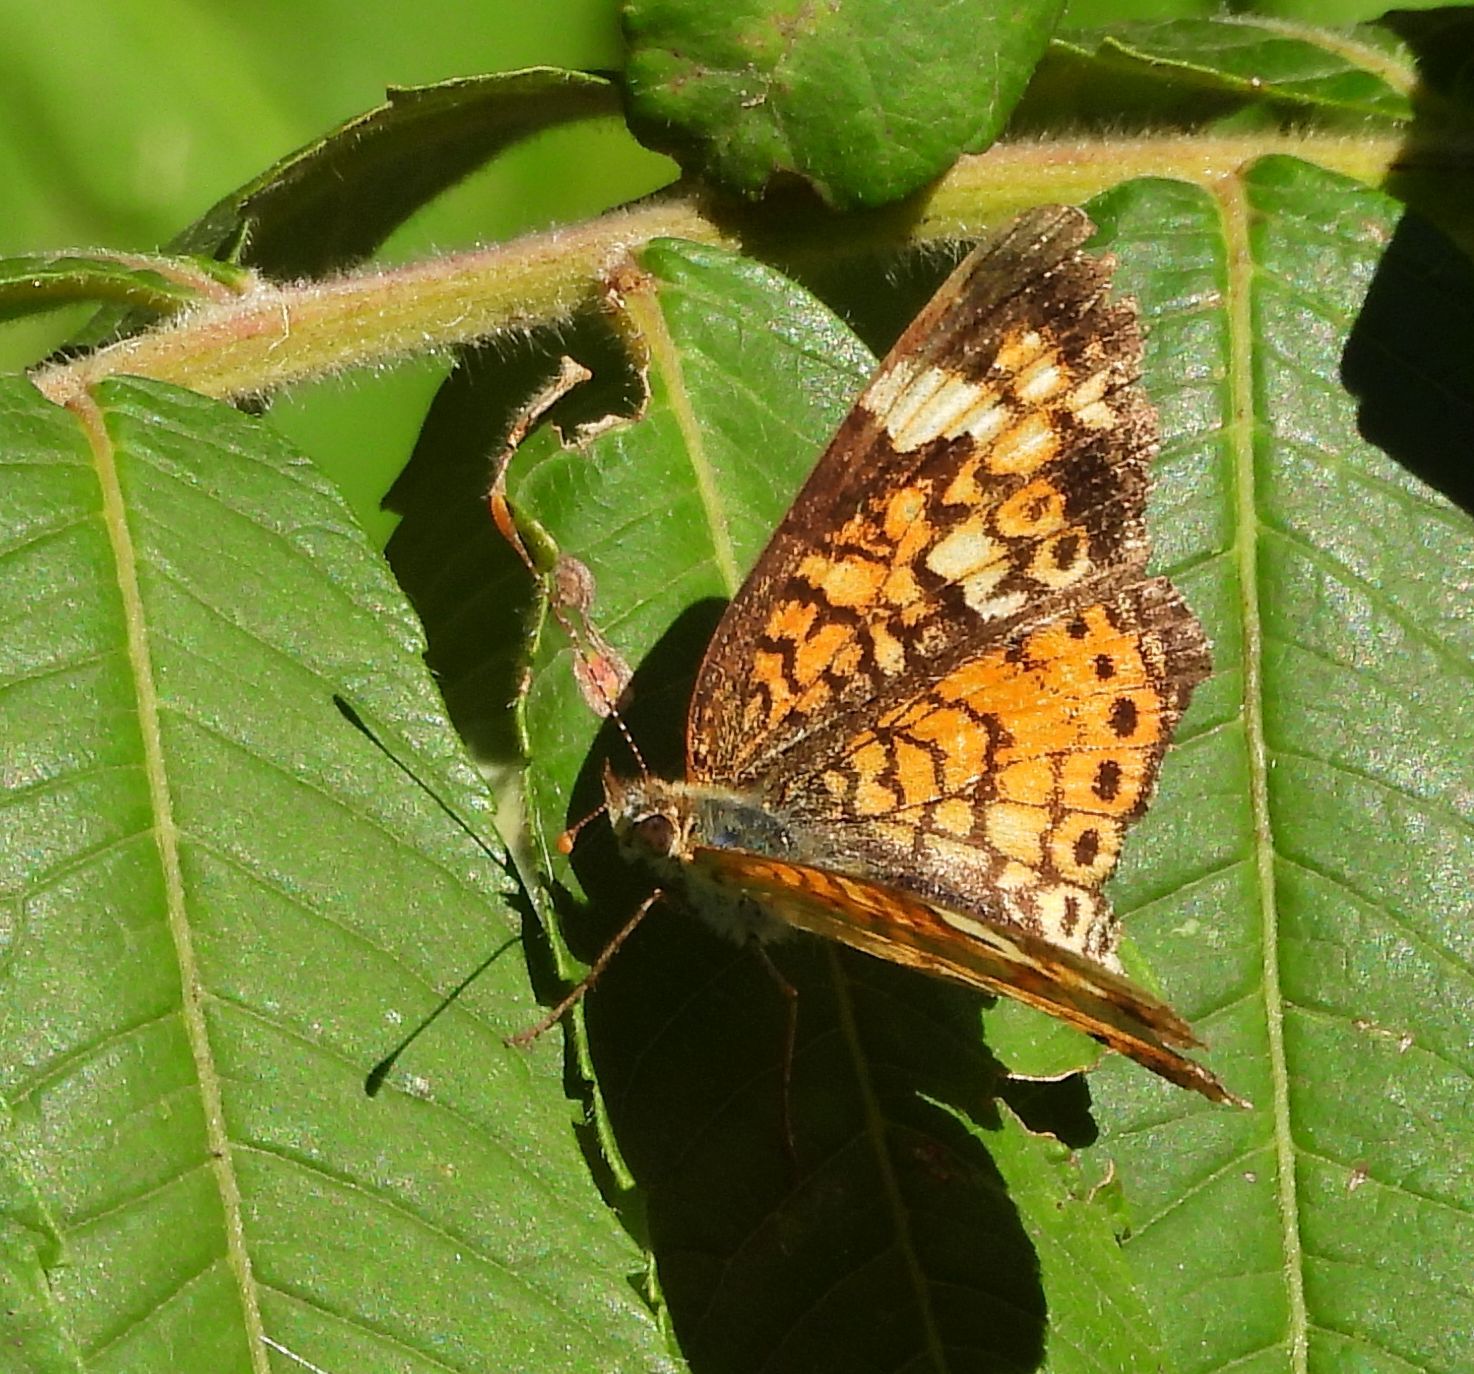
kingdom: Animalia
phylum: Arthropoda
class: Insecta
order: Lepidoptera
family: Nymphalidae
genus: Phyciodes
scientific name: Phyciodes tharos
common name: Pearl crescent
